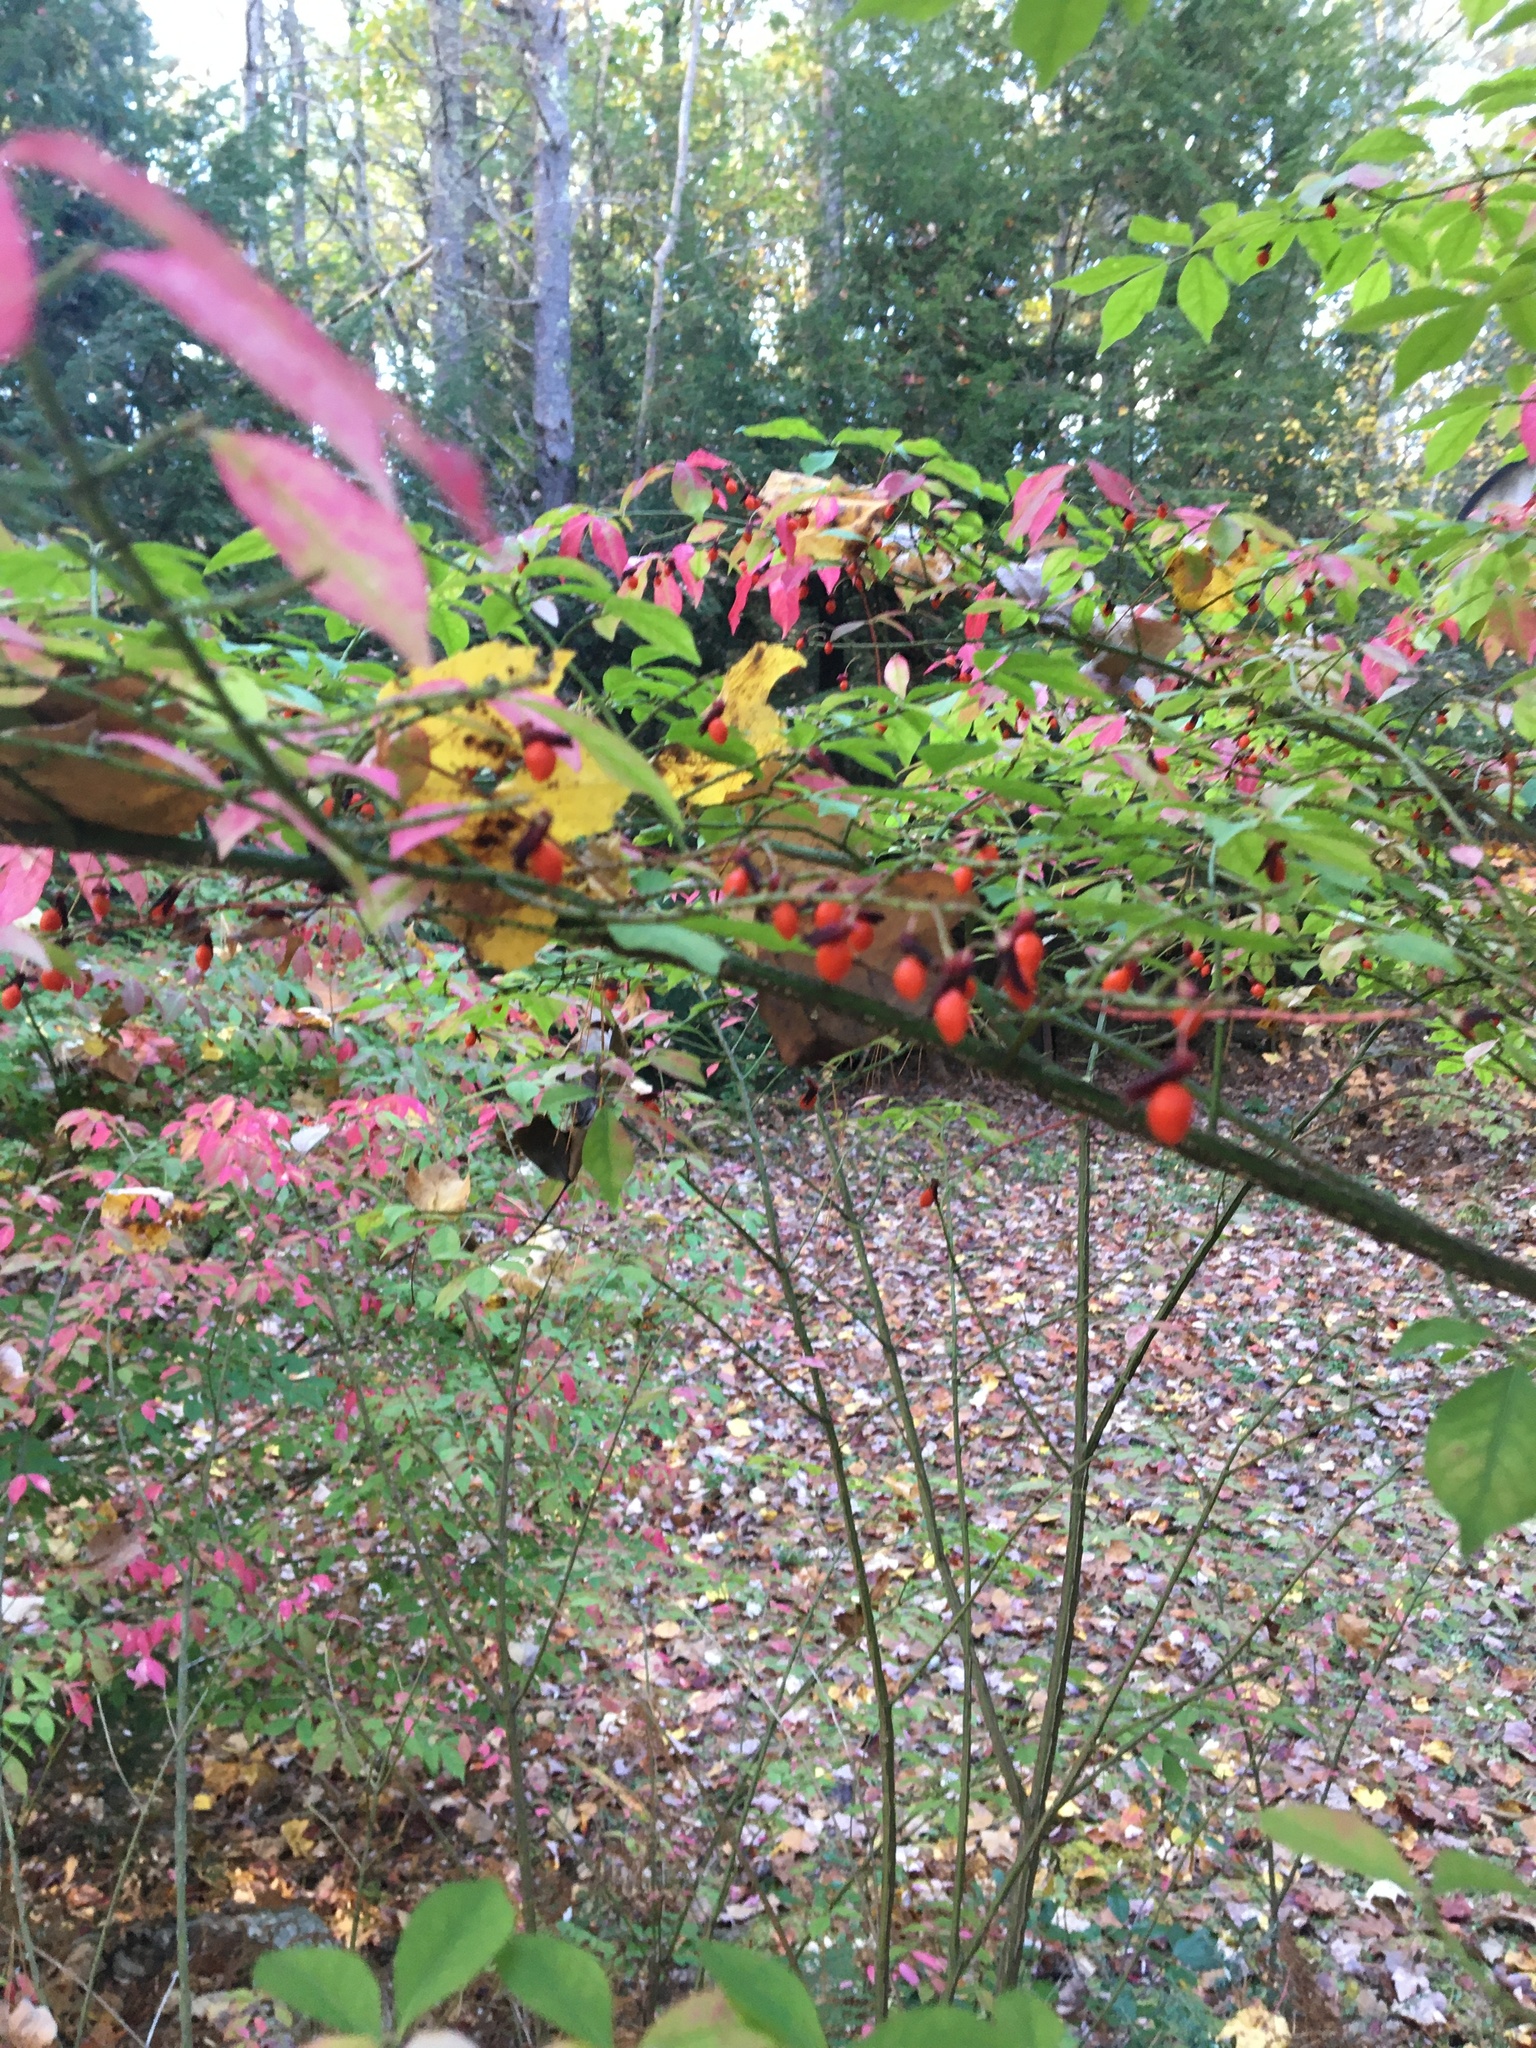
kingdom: Plantae
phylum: Tracheophyta
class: Magnoliopsida
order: Celastrales
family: Celastraceae
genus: Euonymus
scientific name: Euonymus alatus
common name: Winged euonymus
